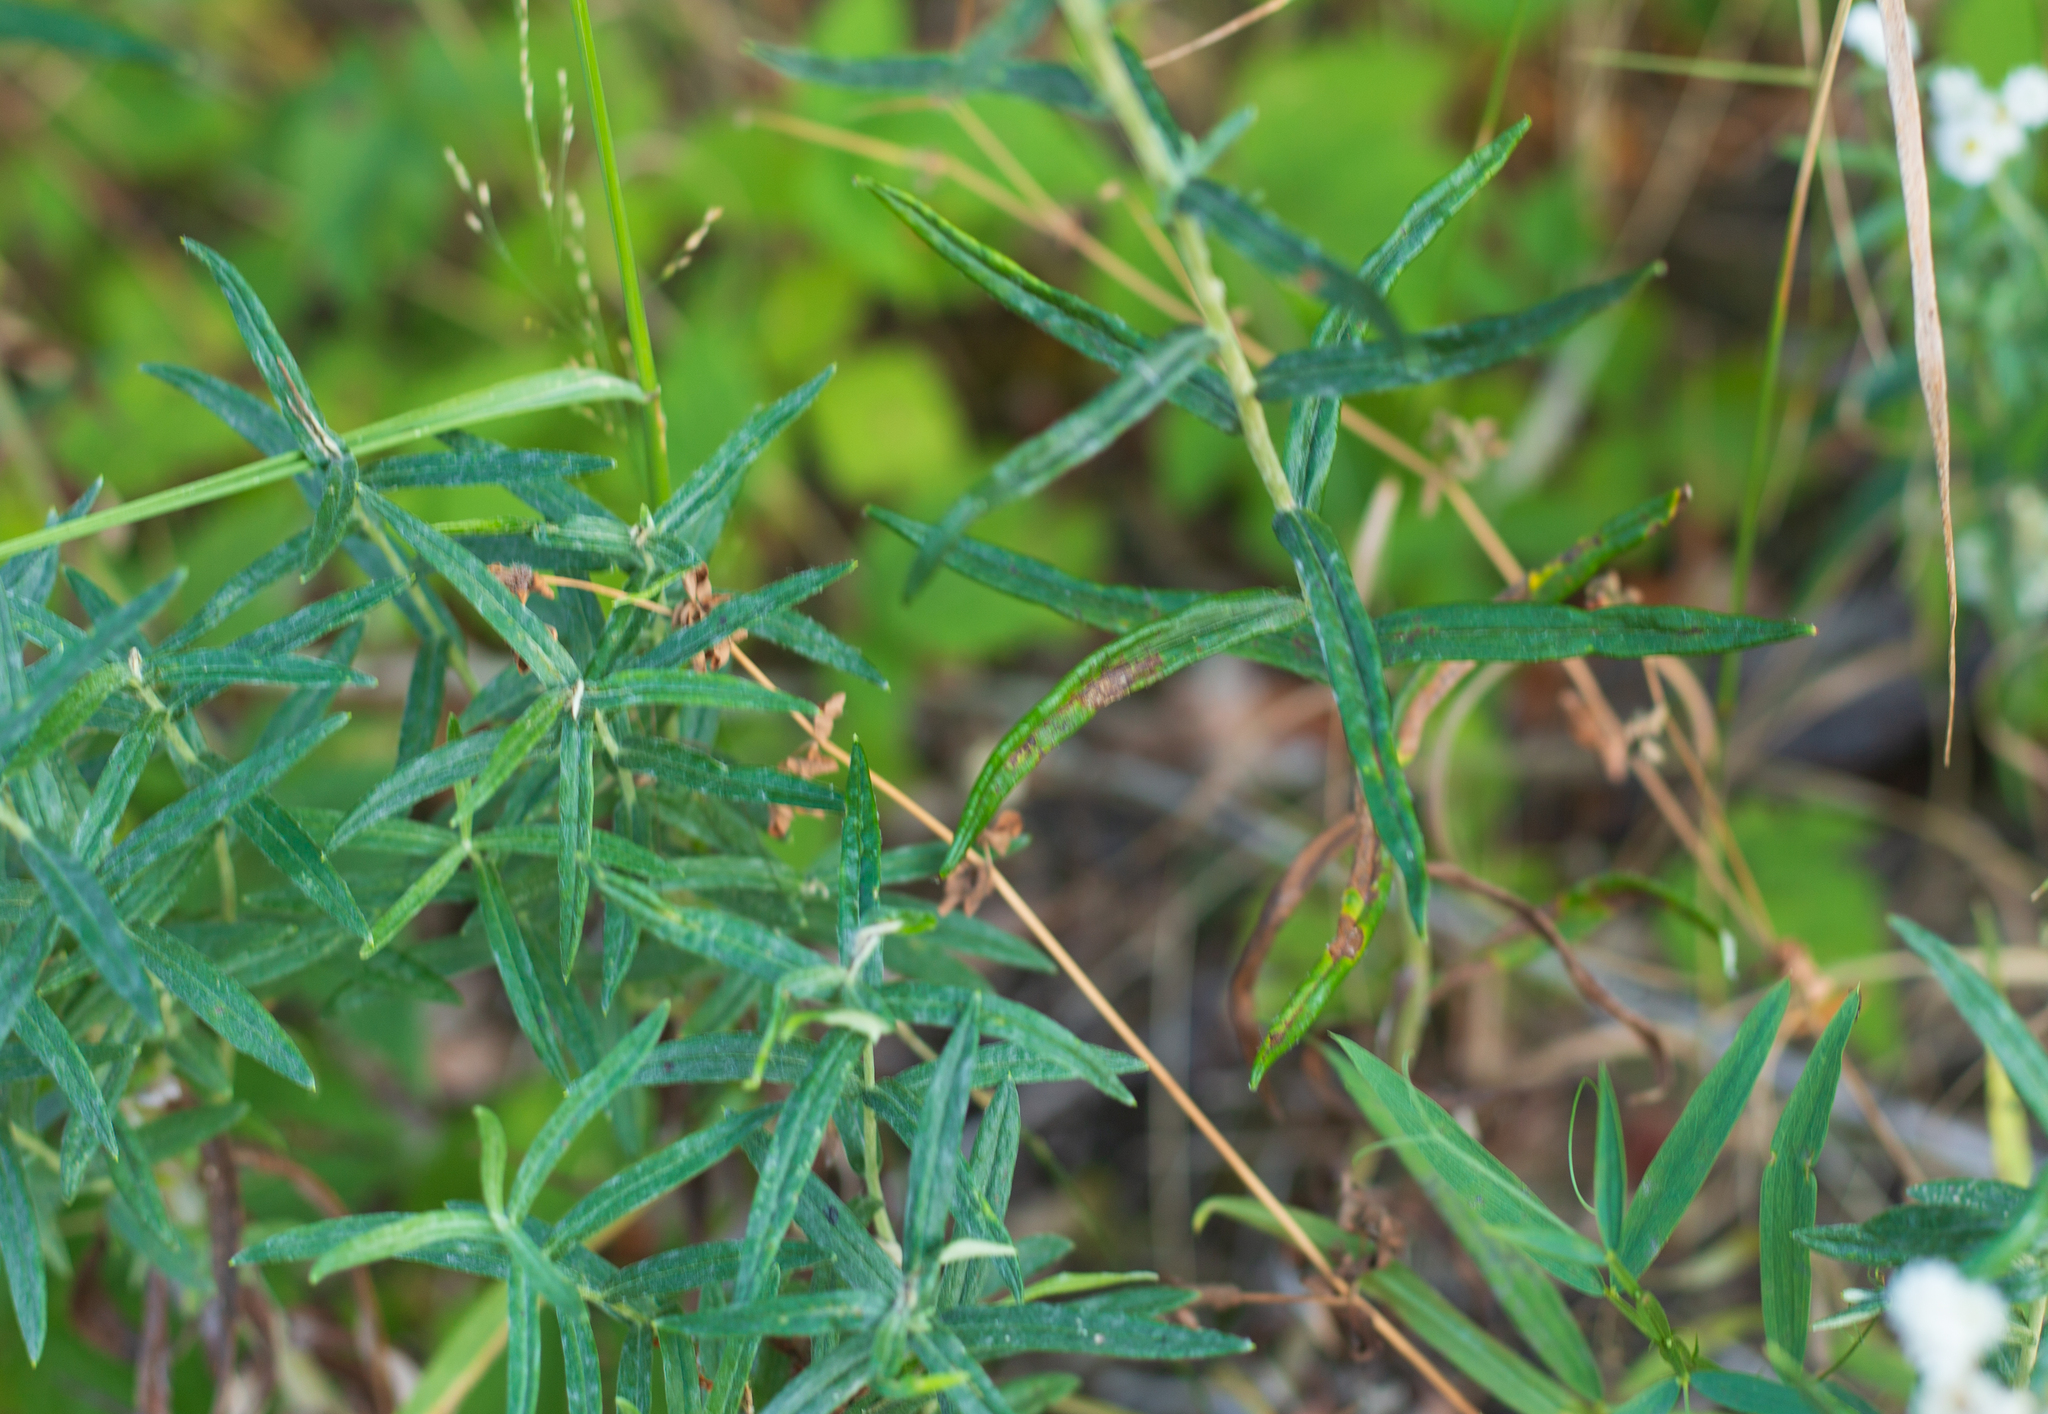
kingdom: Plantae
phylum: Tracheophyta
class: Magnoliopsida
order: Asterales
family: Asteraceae
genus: Anaphalis
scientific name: Anaphalis margaritacea
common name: Pearly everlasting
